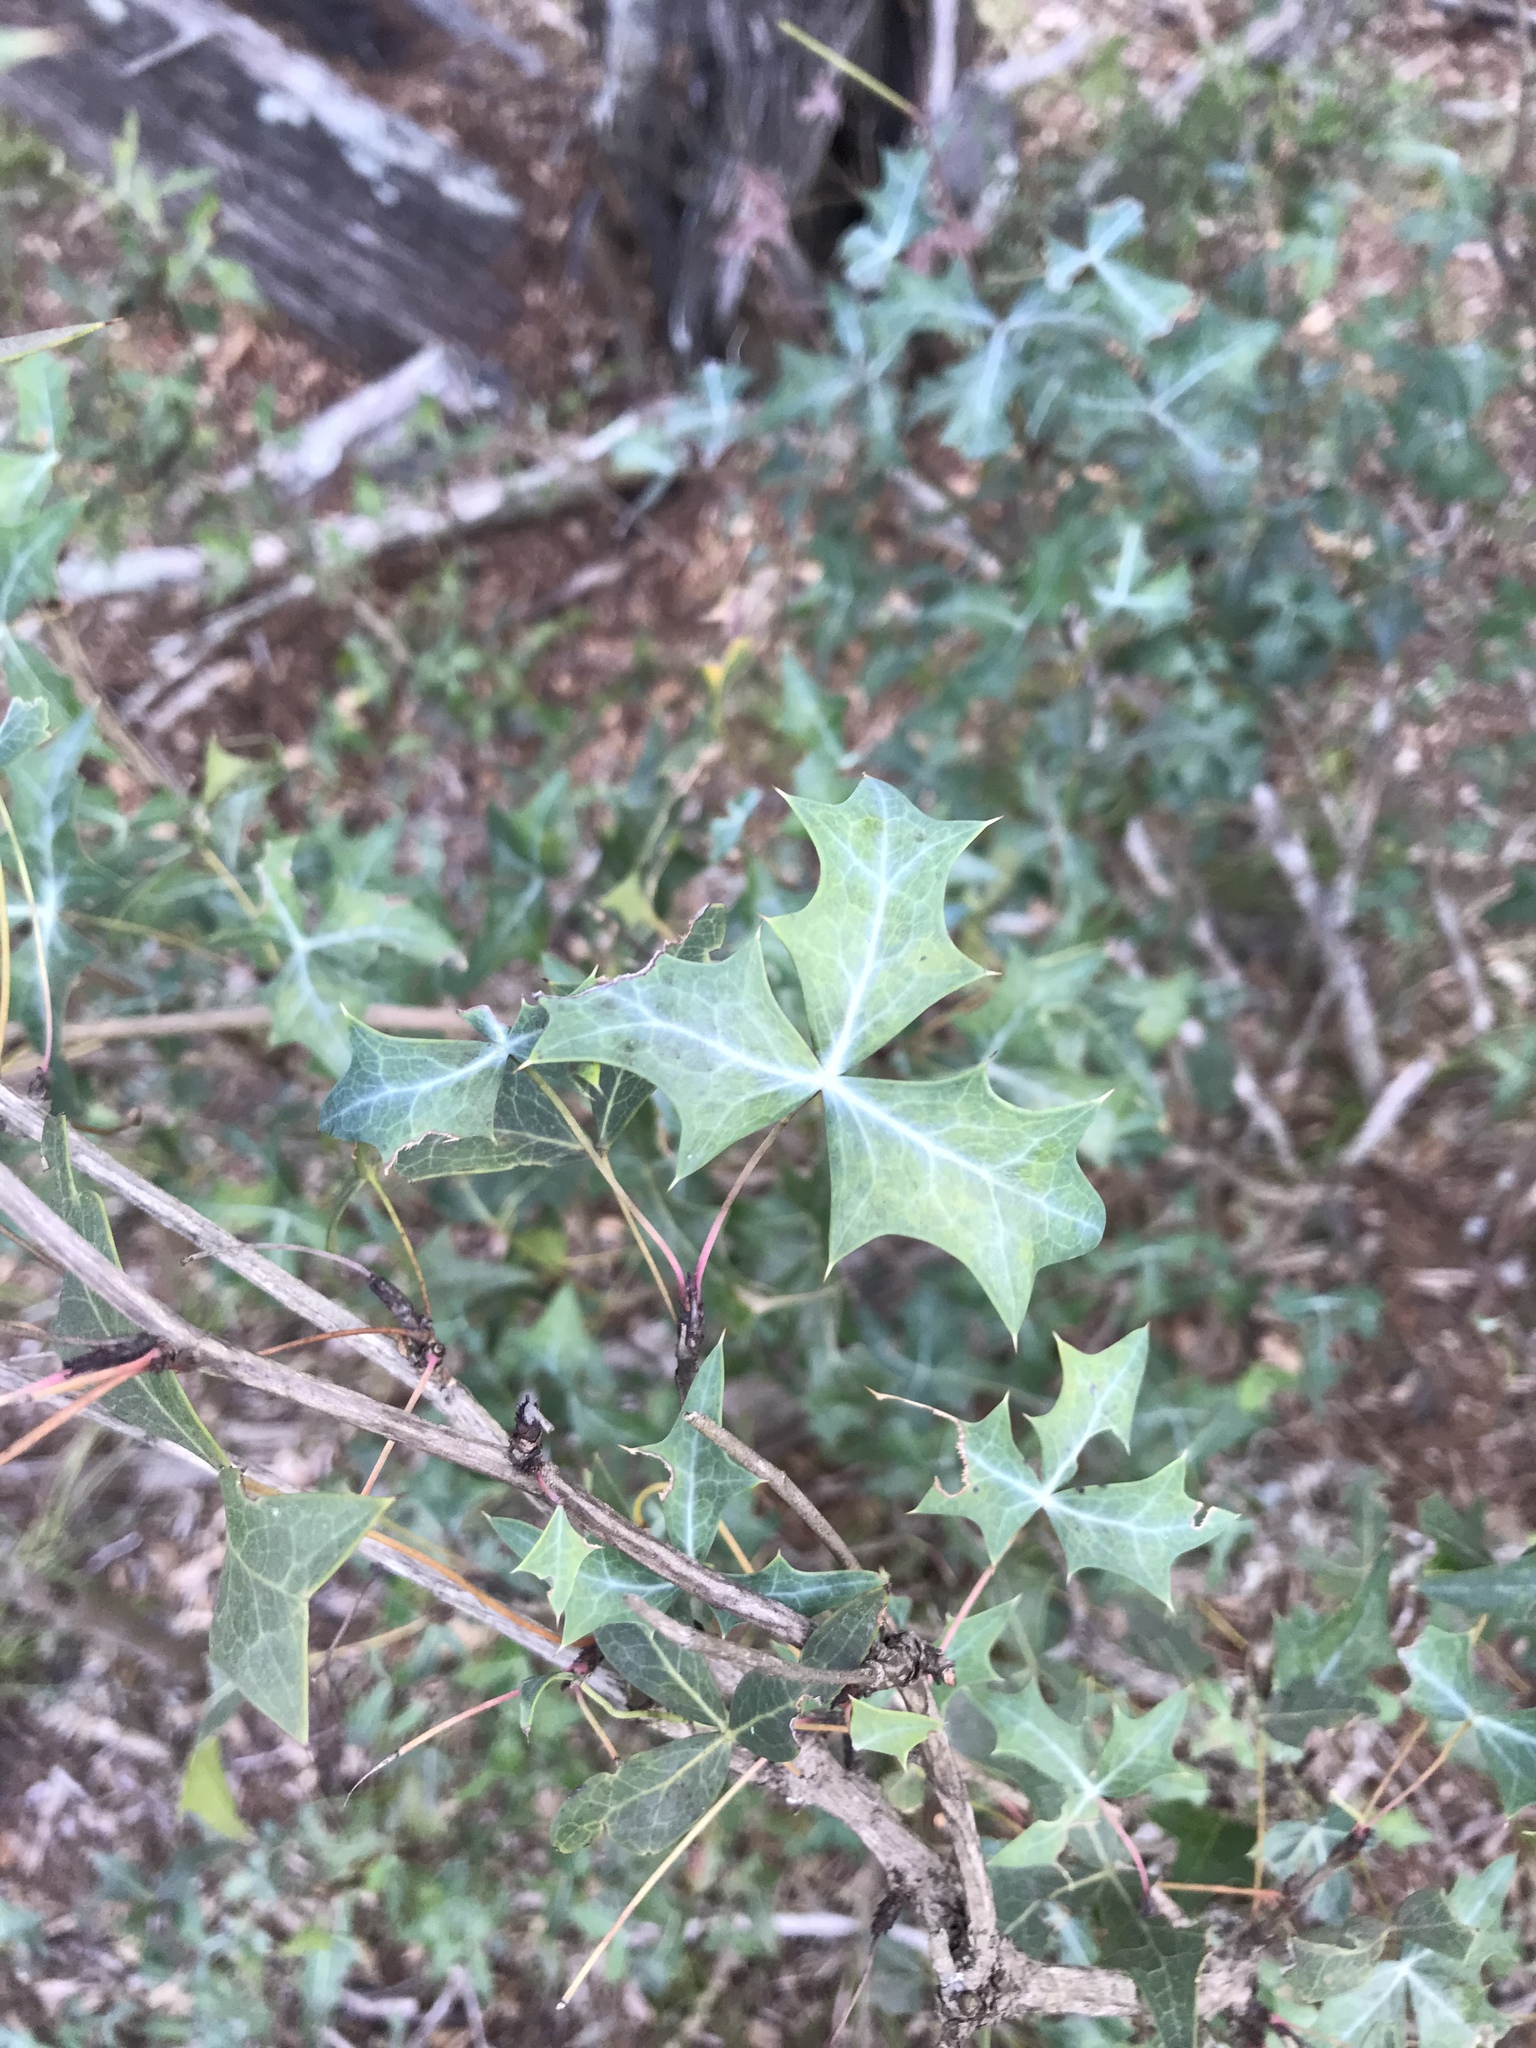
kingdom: Plantae
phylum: Tracheophyta
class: Magnoliopsida
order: Ranunculales
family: Berberidaceae
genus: Alloberberis
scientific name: Alloberberis trifoliolata
